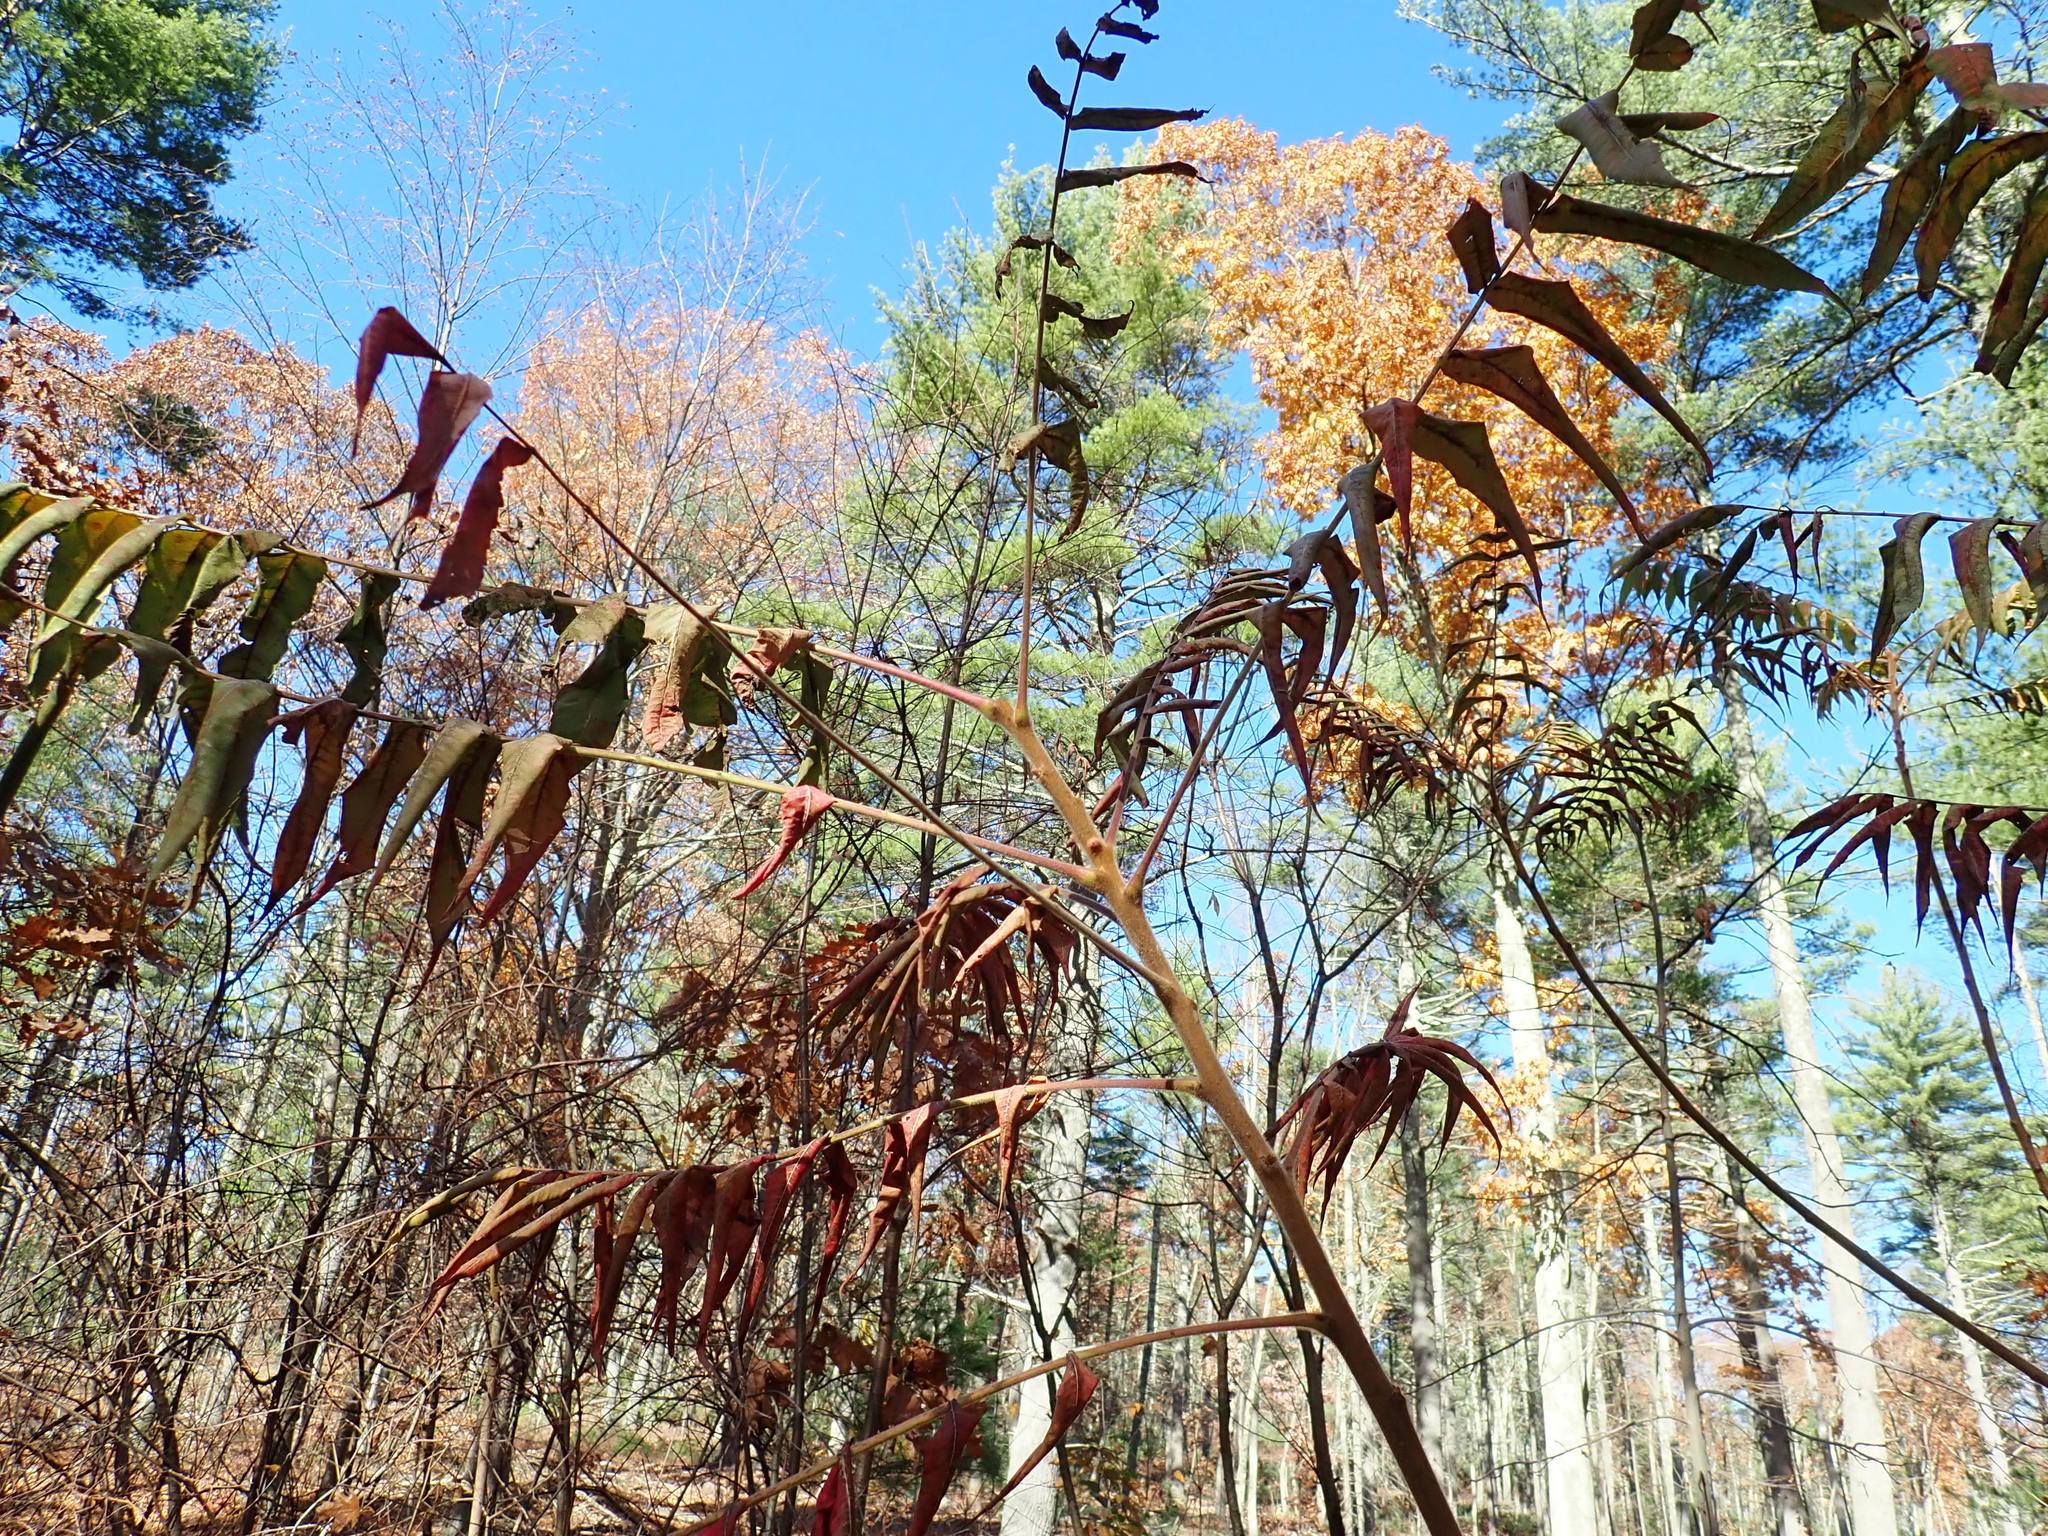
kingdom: Plantae
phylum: Tracheophyta
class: Magnoliopsida
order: Sapindales
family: Anacardiaceae
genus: Rhus
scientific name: Rhus typhina
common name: Staghorn sumac
